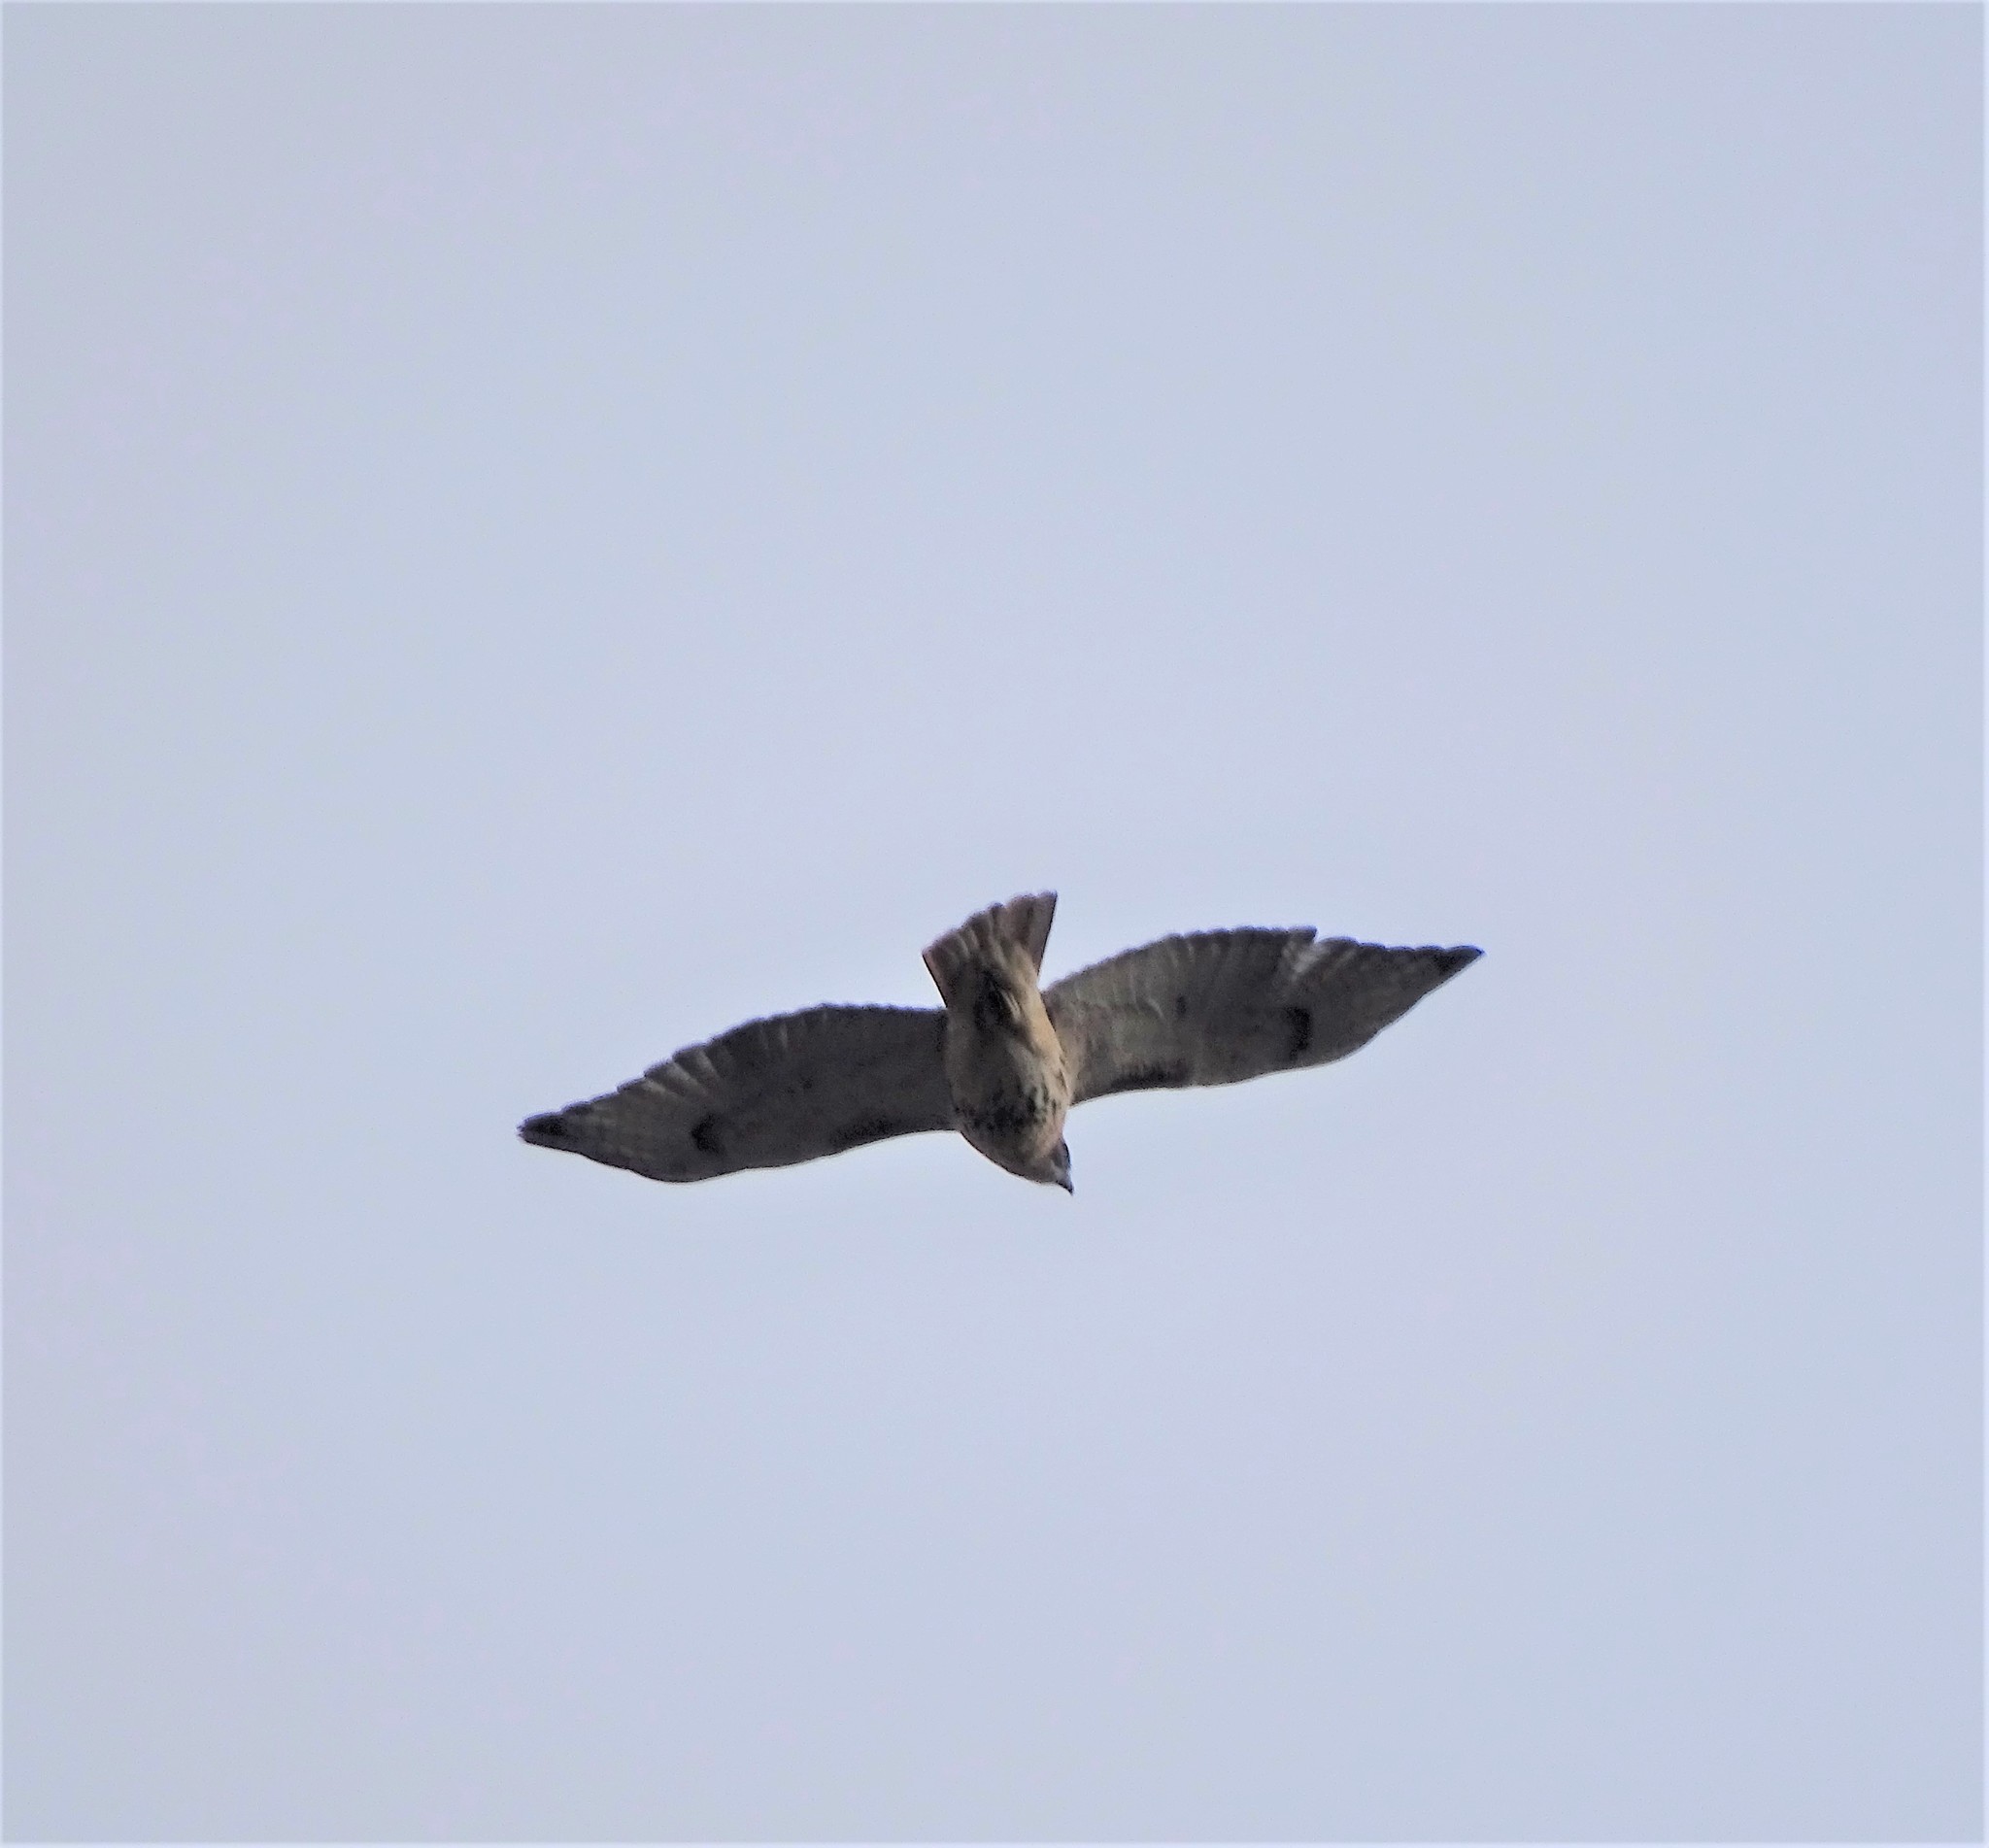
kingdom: Animalia
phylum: Chordata
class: Aves
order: Accipitriformes
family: Accipitridae
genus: Buteo
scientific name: Buteo jamaicensis
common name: Red-tailed hawk
